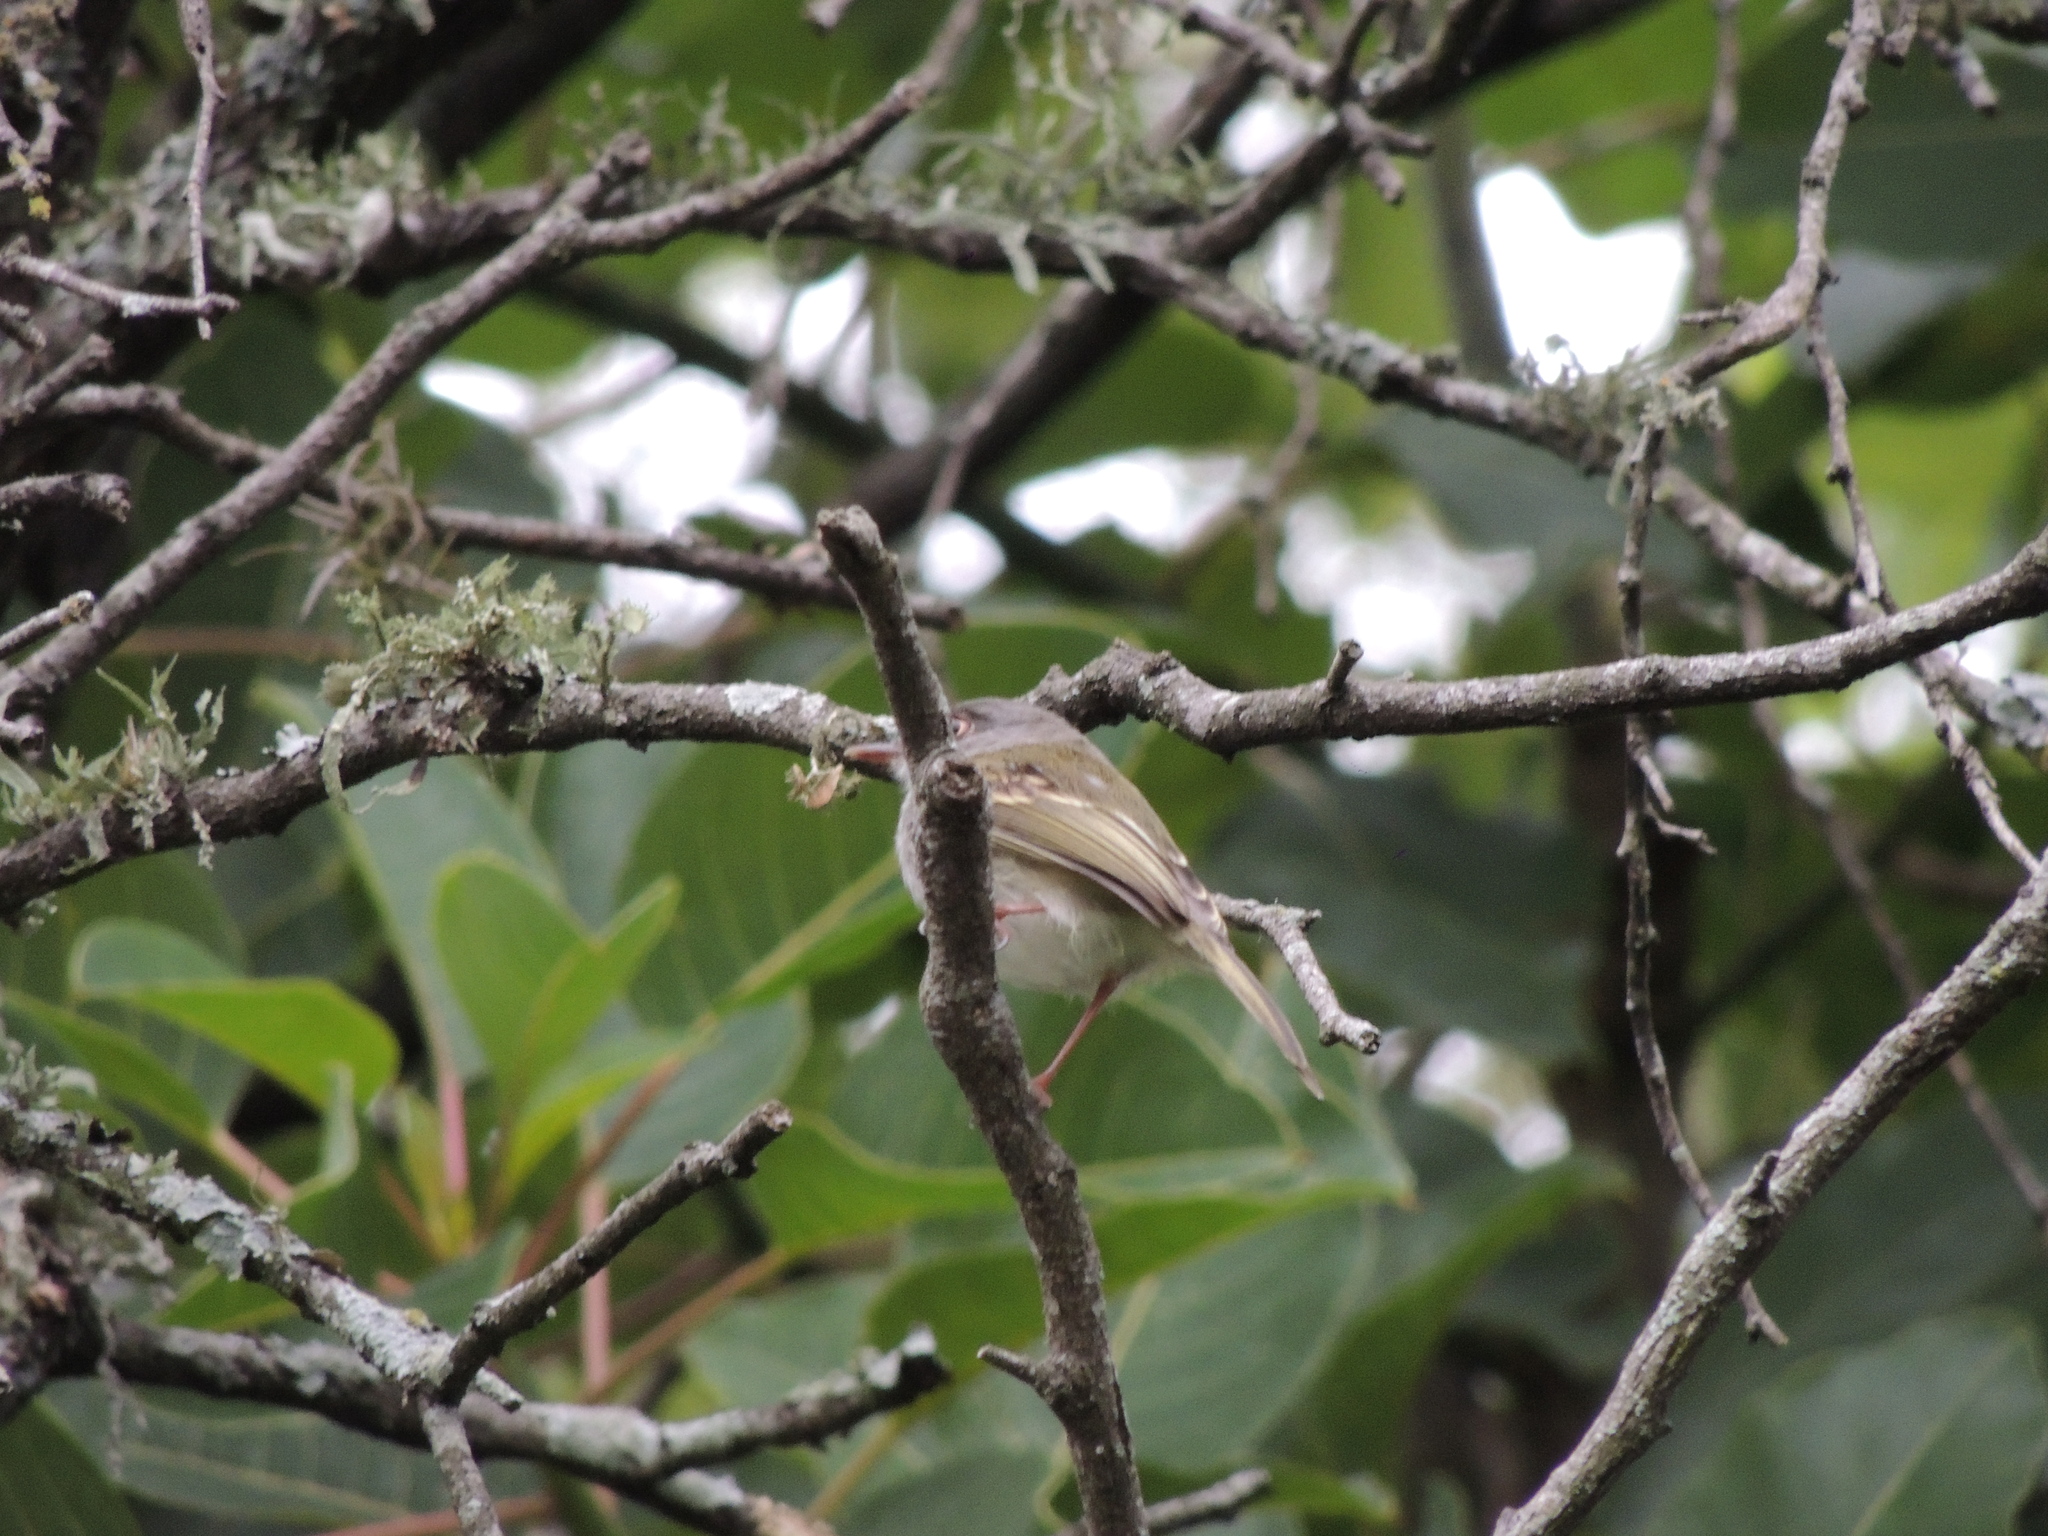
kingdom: Animalia
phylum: Chordata
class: Aves
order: Passeriformes
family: Tyrannidae
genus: Hemitriccus
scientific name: Hemitriccus margaritaceiventer
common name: Pearly-vented tody-tyrant
